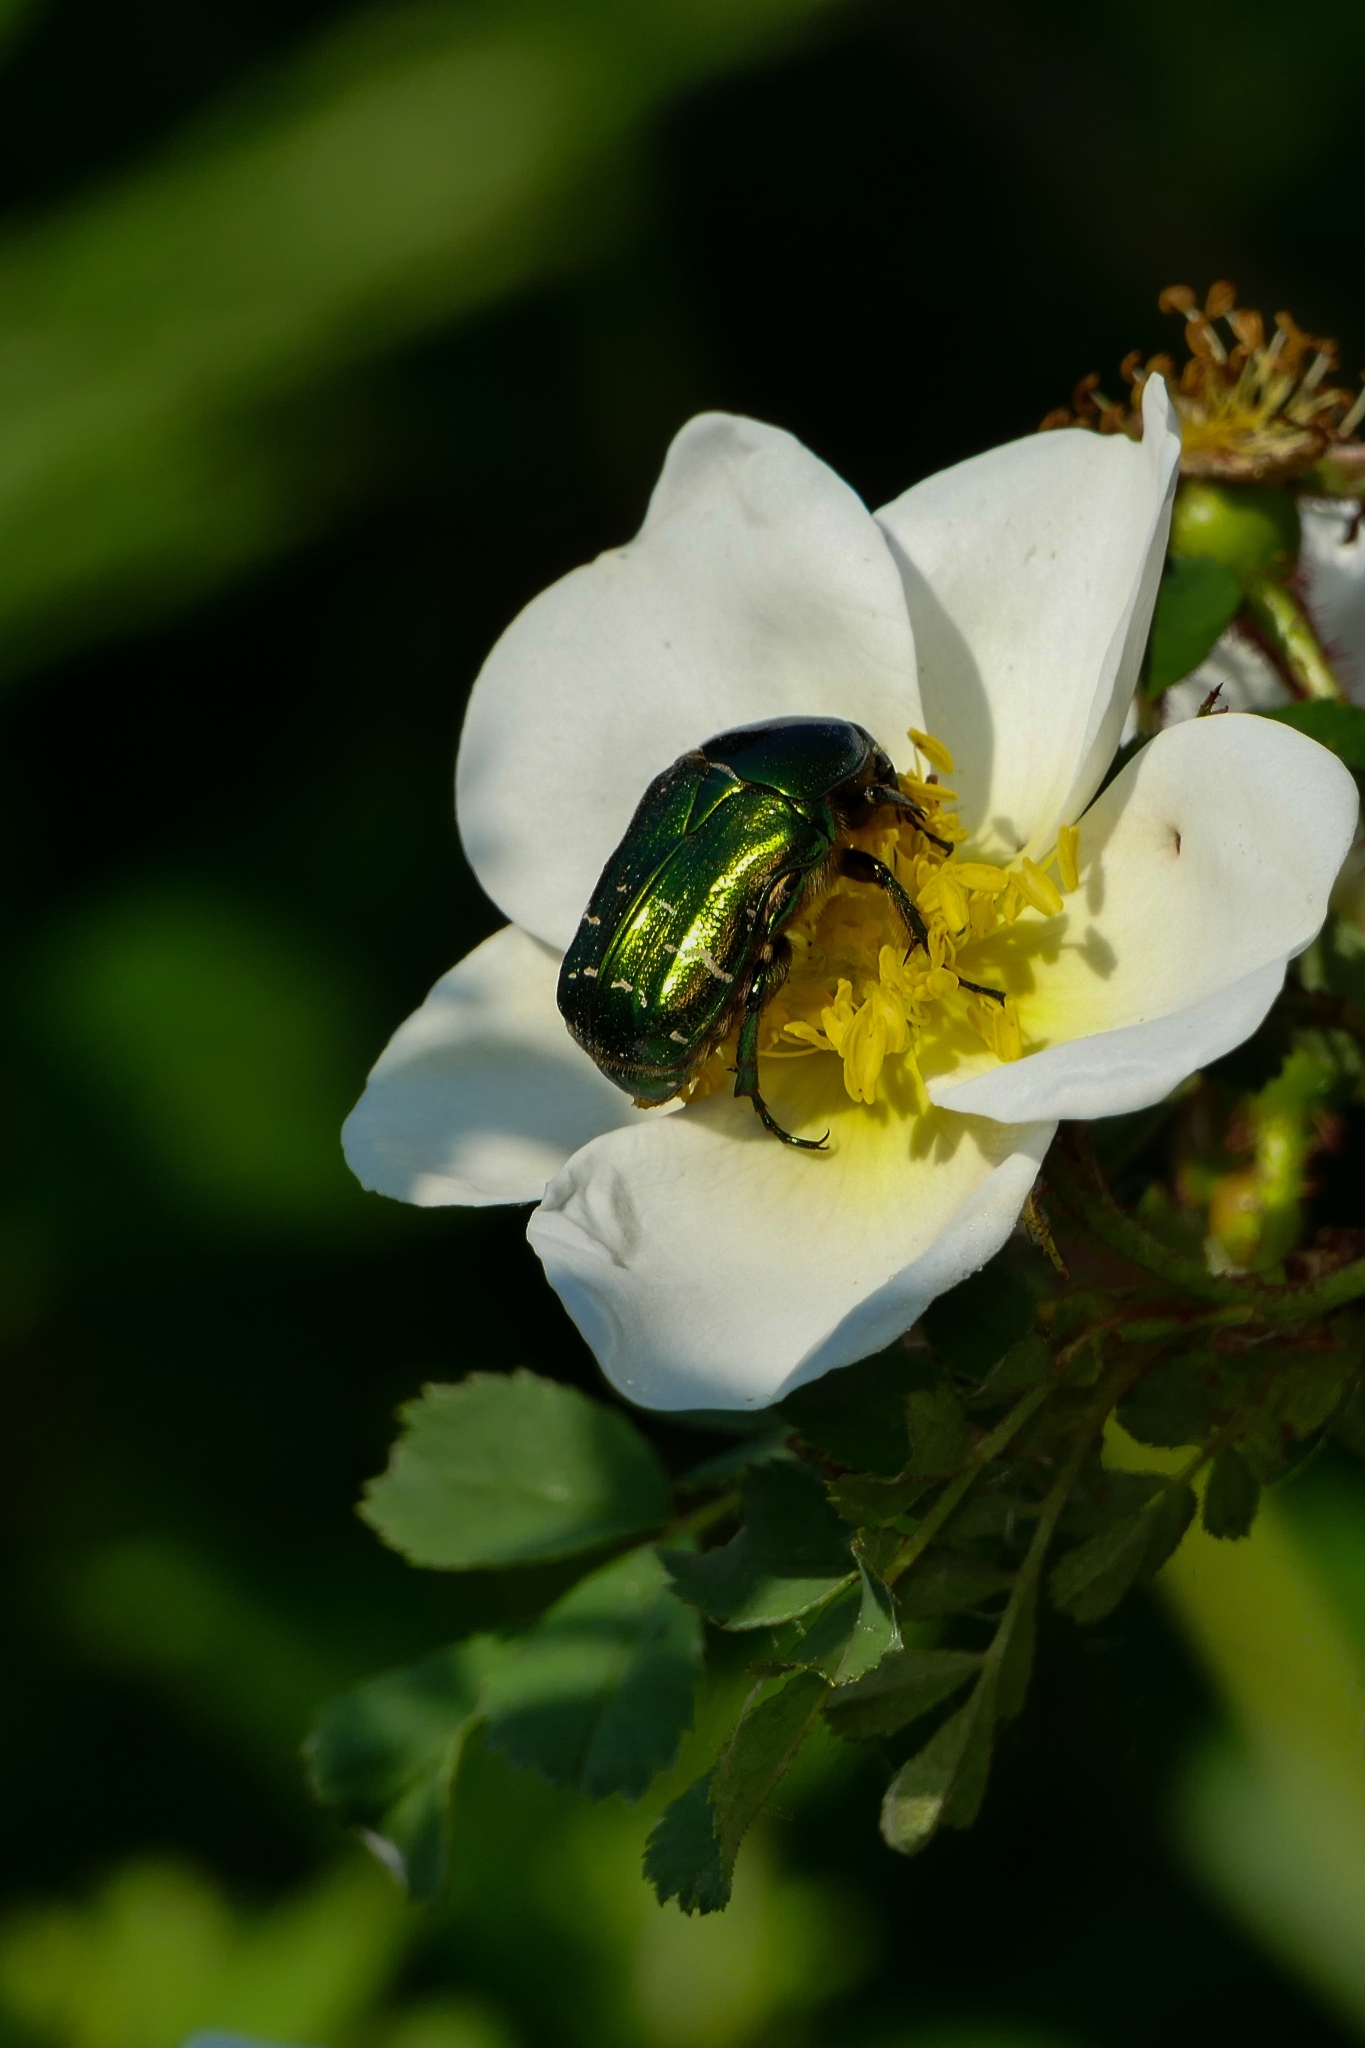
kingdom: Animalia
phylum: Arthropoda
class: Insecta
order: Coleoptera
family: Scarabaeidae
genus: Cetonia
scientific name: Cetonia aurata
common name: Rose chafer
